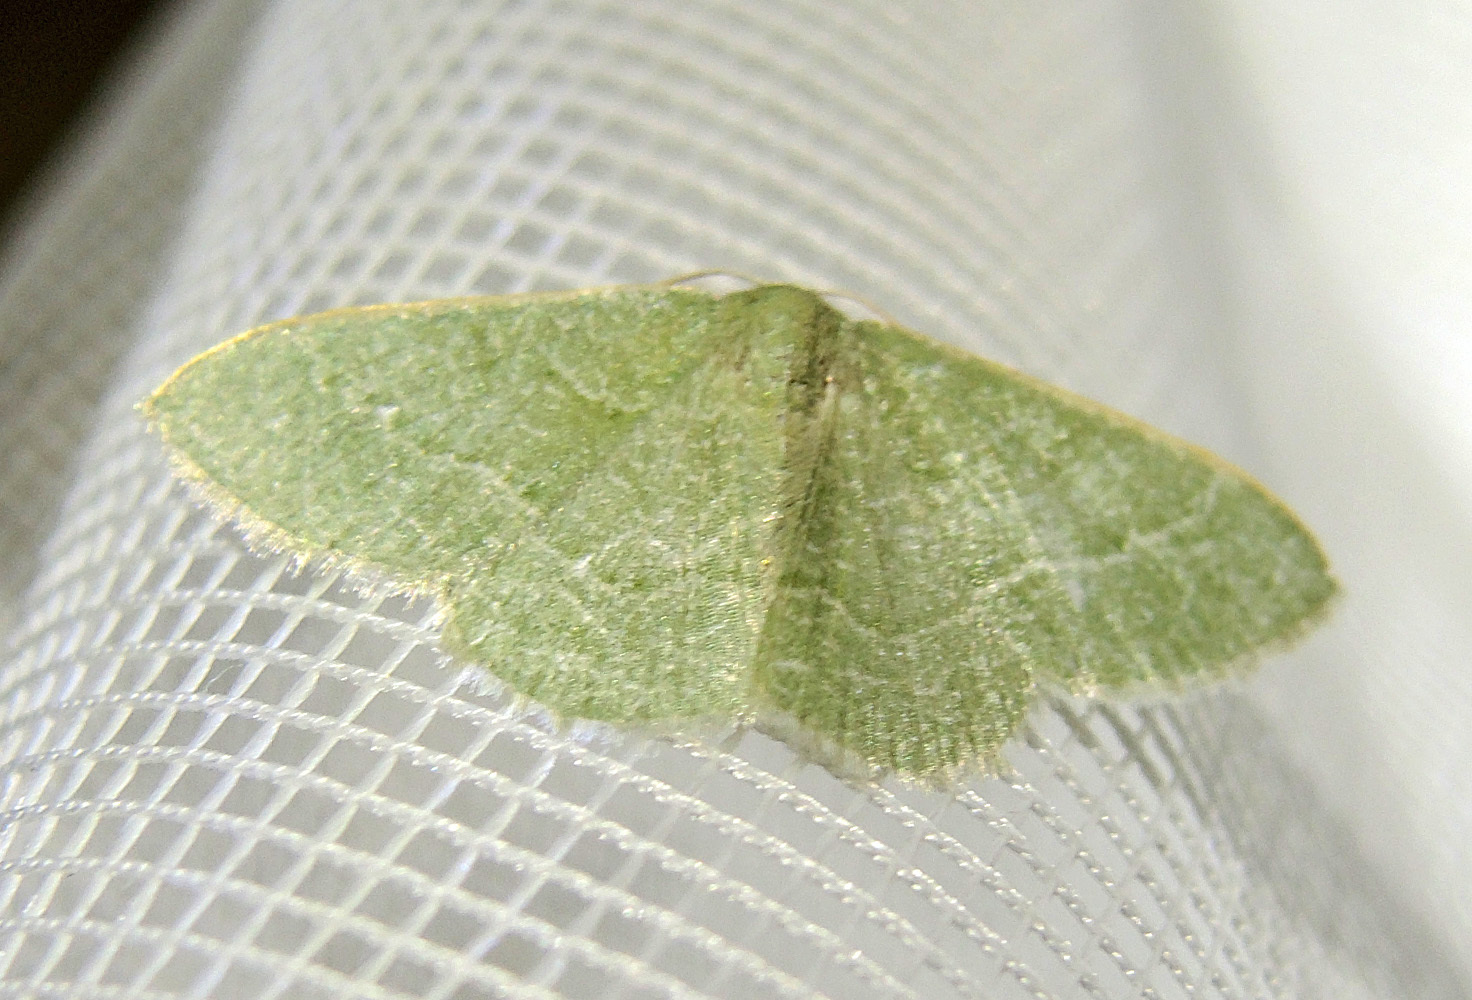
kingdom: Animalia
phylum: Arthropoda
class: Insecta
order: Lepidoptera
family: Geometridae
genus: Chlorissa
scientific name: Chlorissa etruscaria
